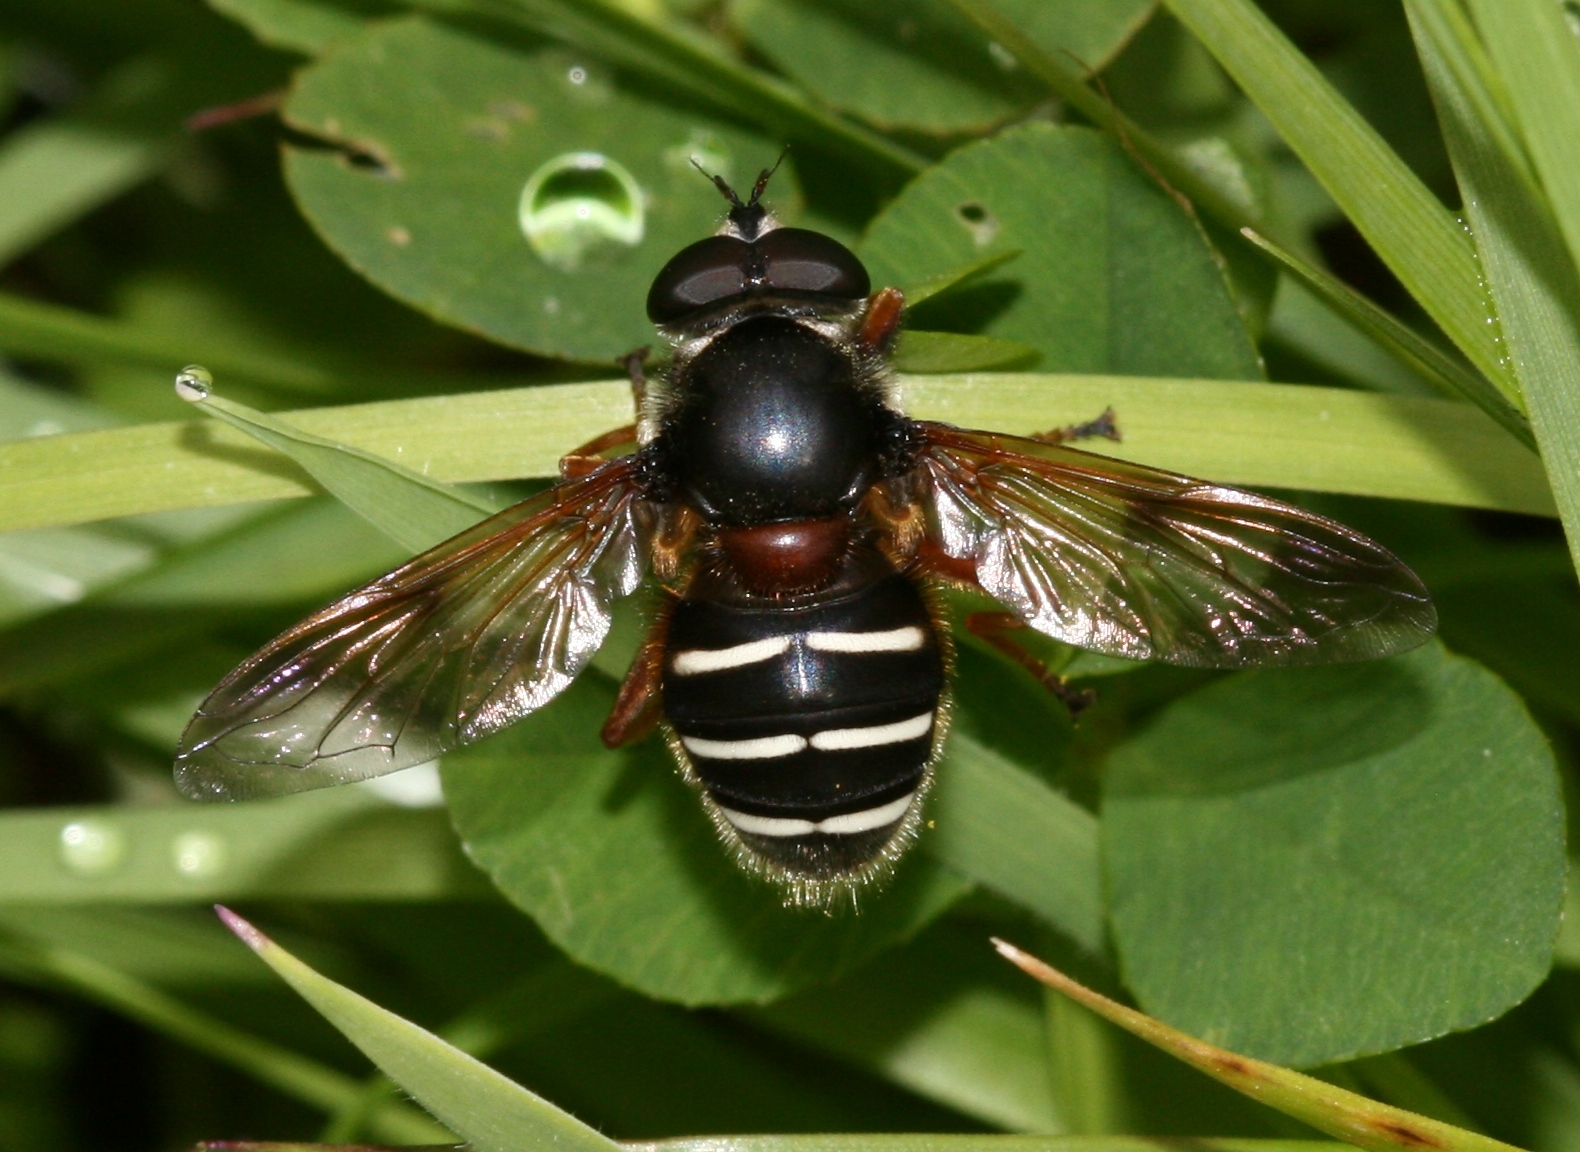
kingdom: Animalia
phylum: Arthropoda
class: Insecta
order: Diptera
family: Syrphidae
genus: Sericomyia
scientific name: Sericomyia lappona
